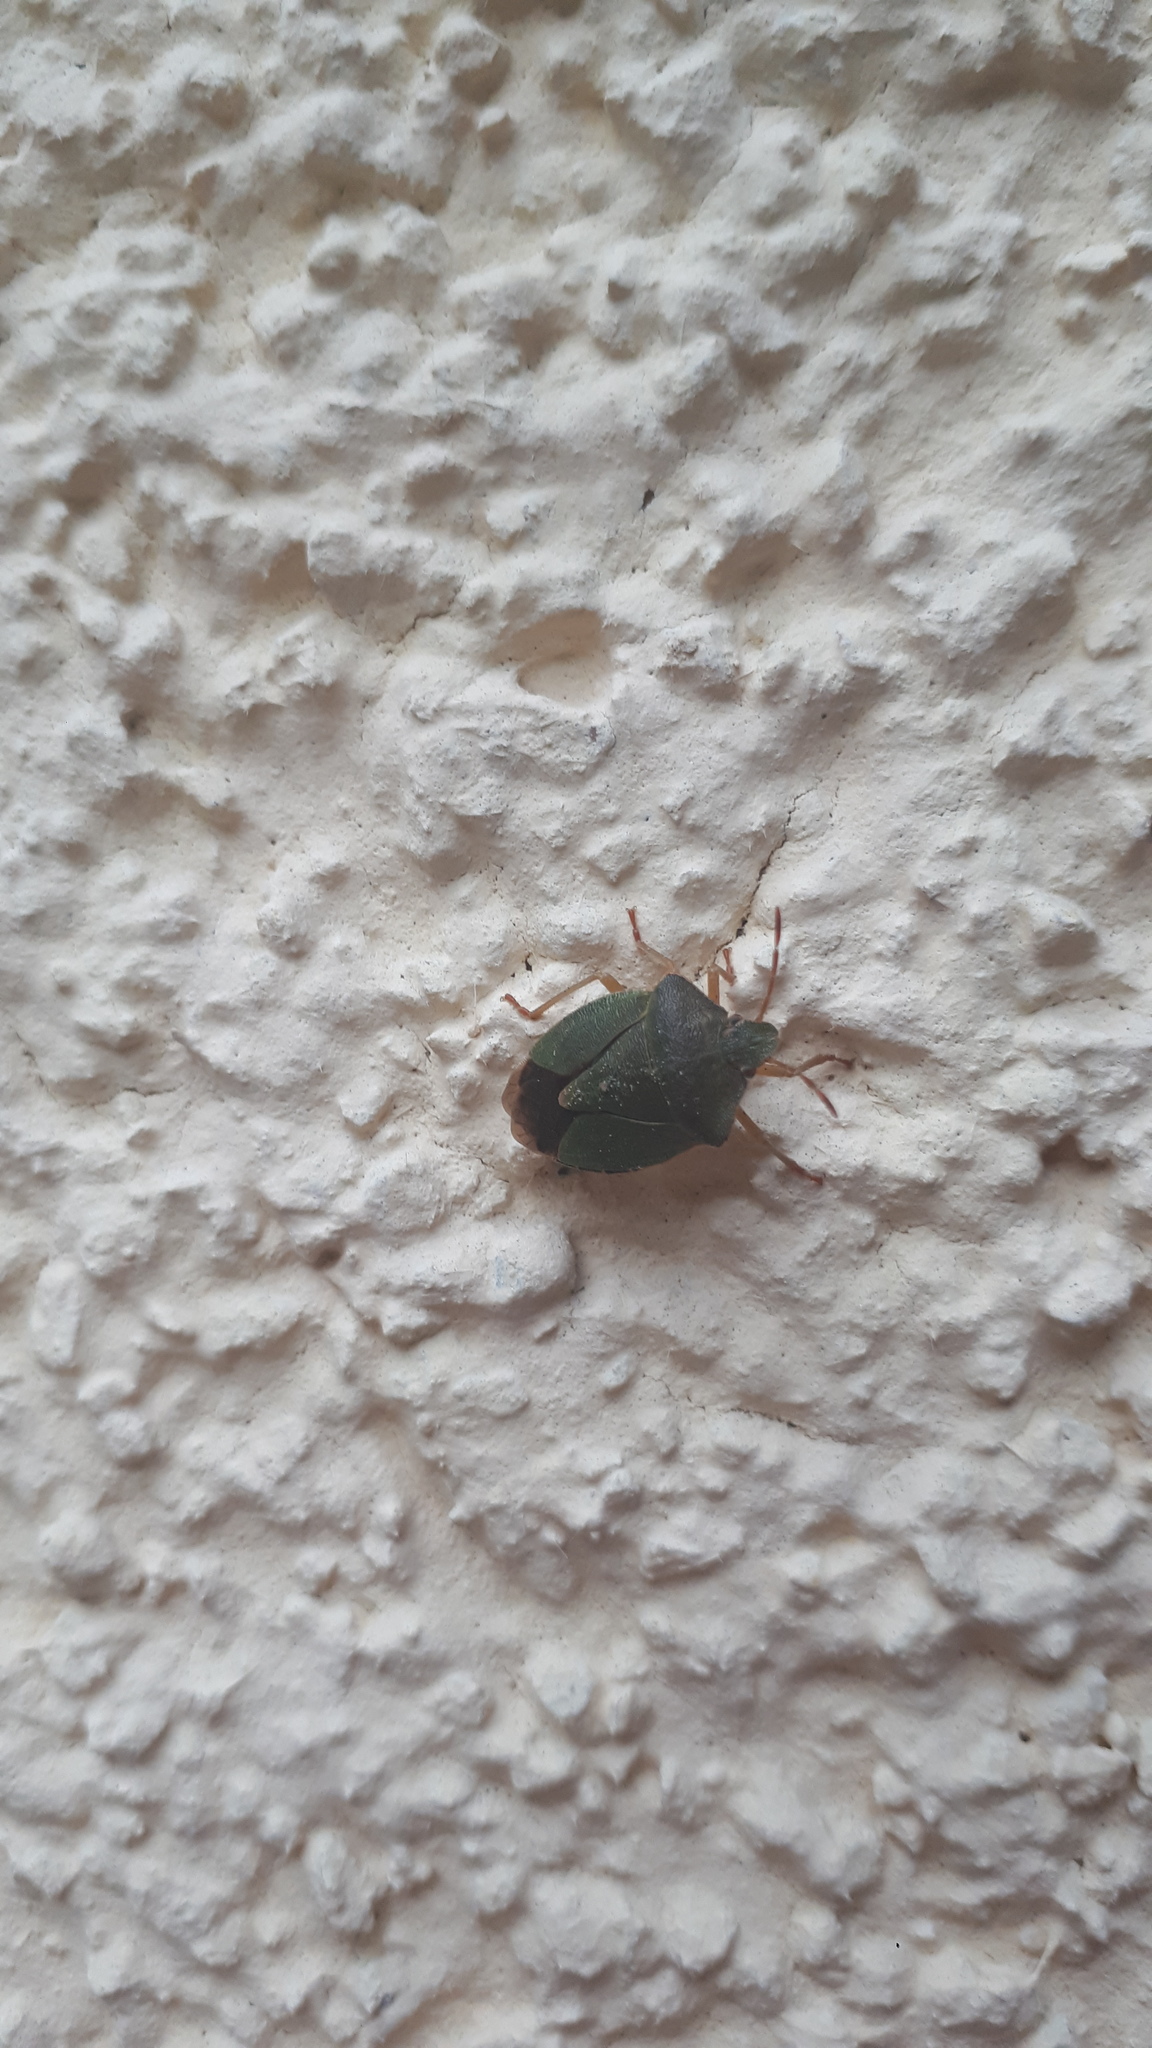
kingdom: Animalia
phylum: Arthropoda
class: Insecta
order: Hemiptera
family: Pentatomidae
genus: Palomena
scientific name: Palomena prasina
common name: Green shieldbug
